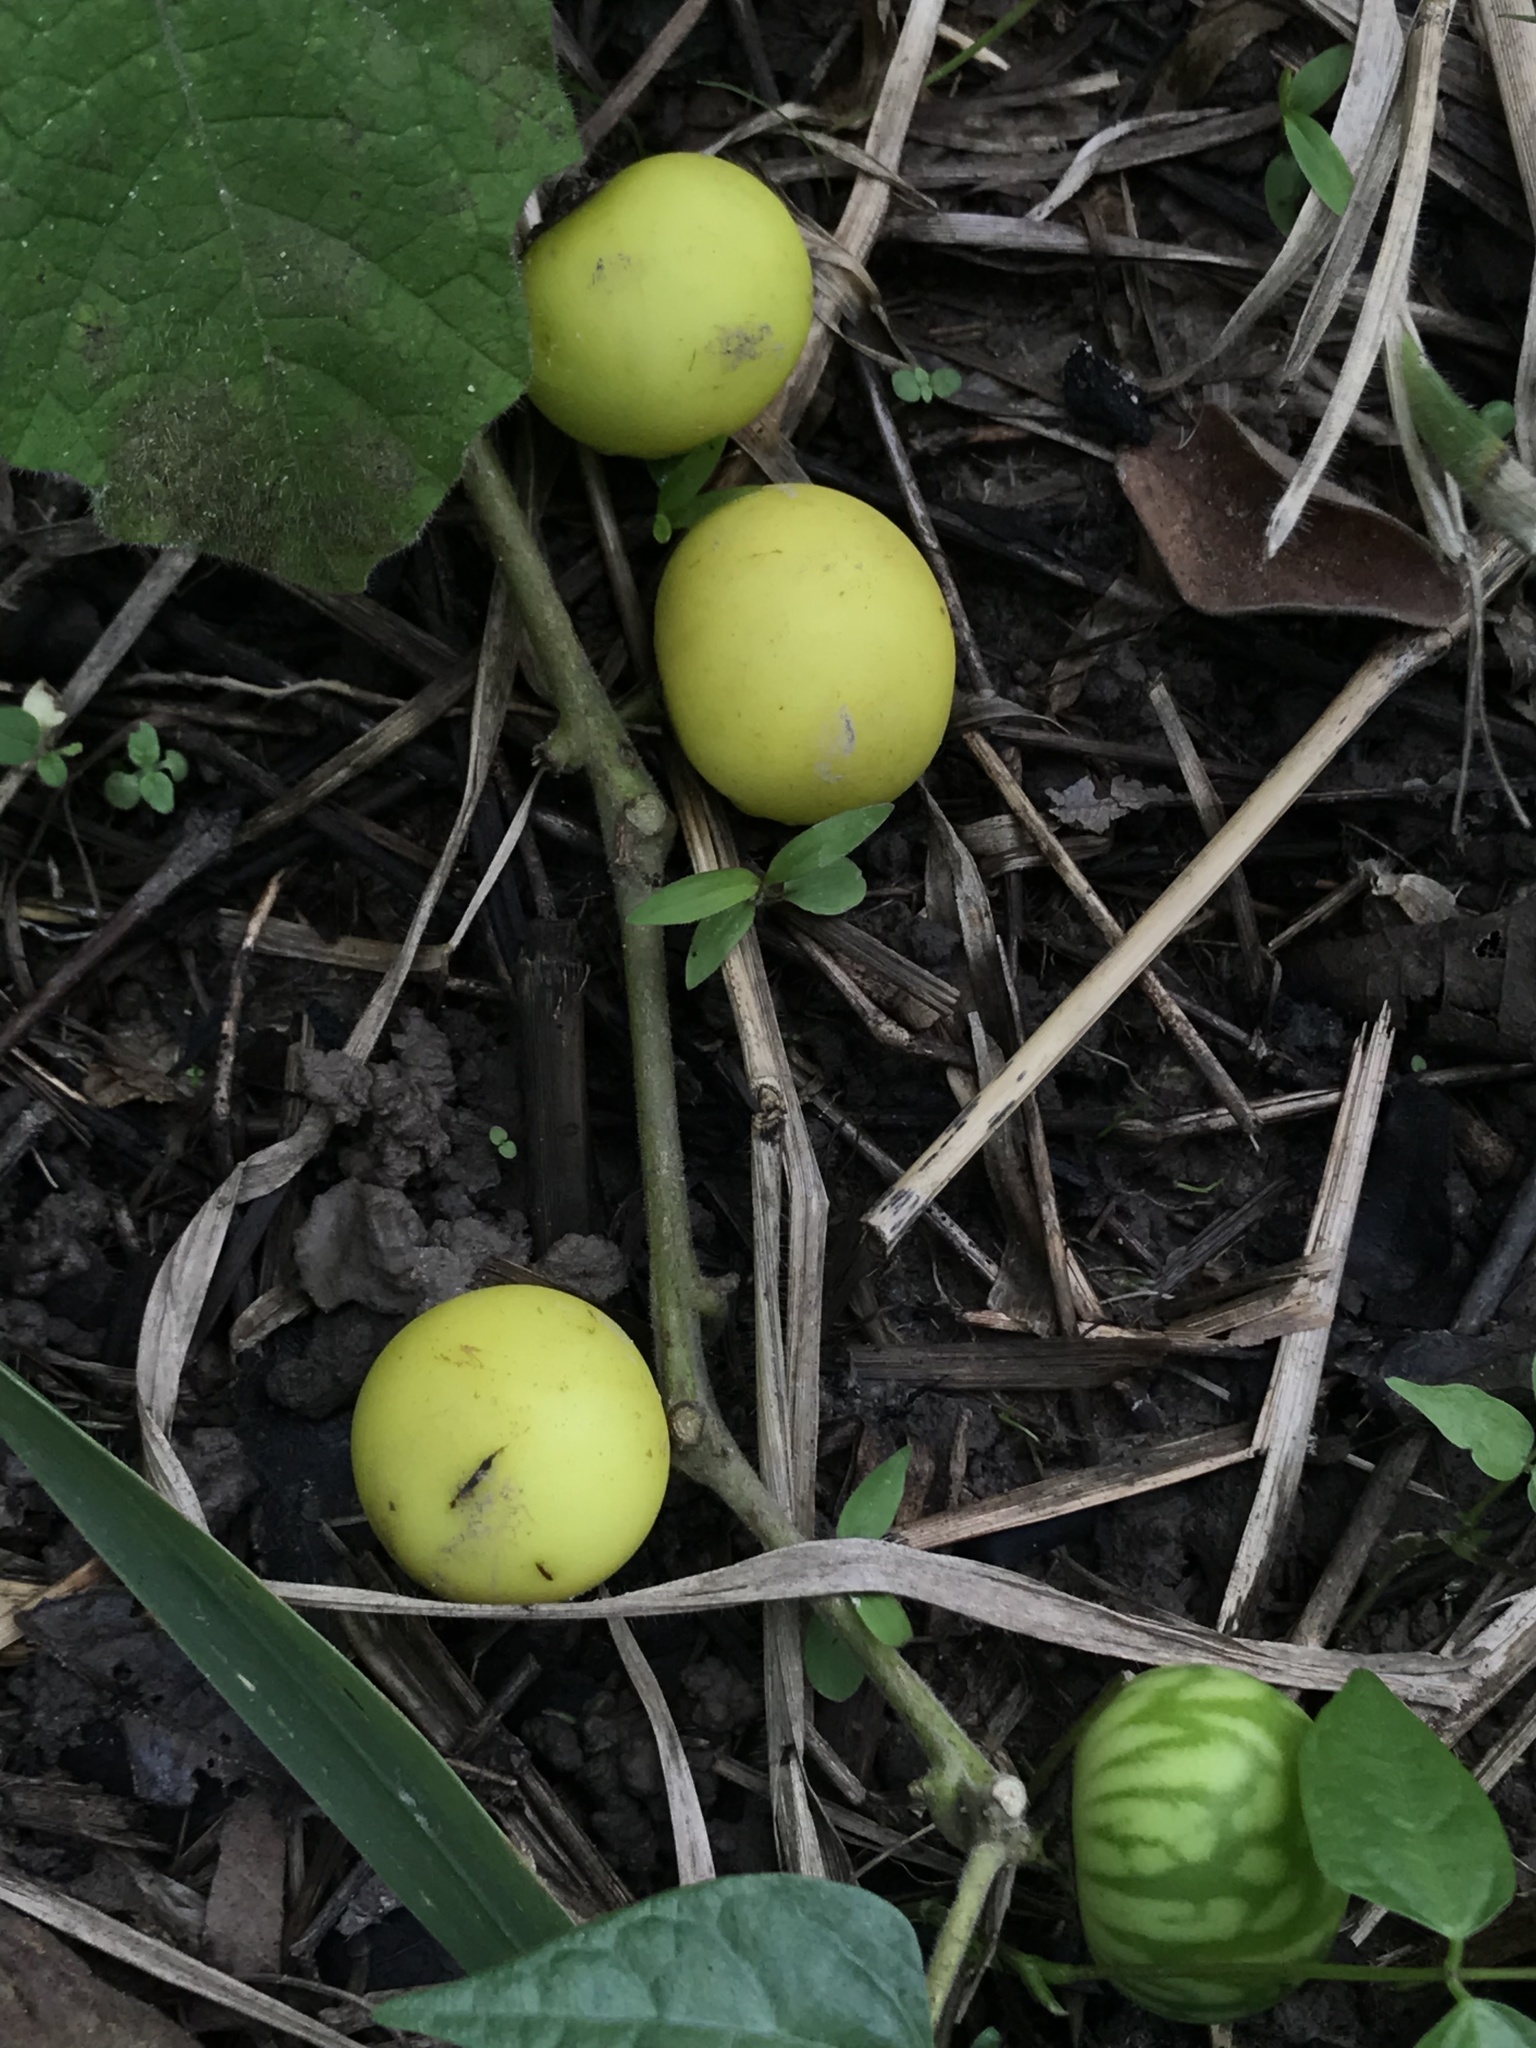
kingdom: Plantae
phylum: Tracheophyta
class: Magnoliopsida
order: Solanales
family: Solanaceae
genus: Solanum
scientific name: Solanum viarum
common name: Tropical soda apple
